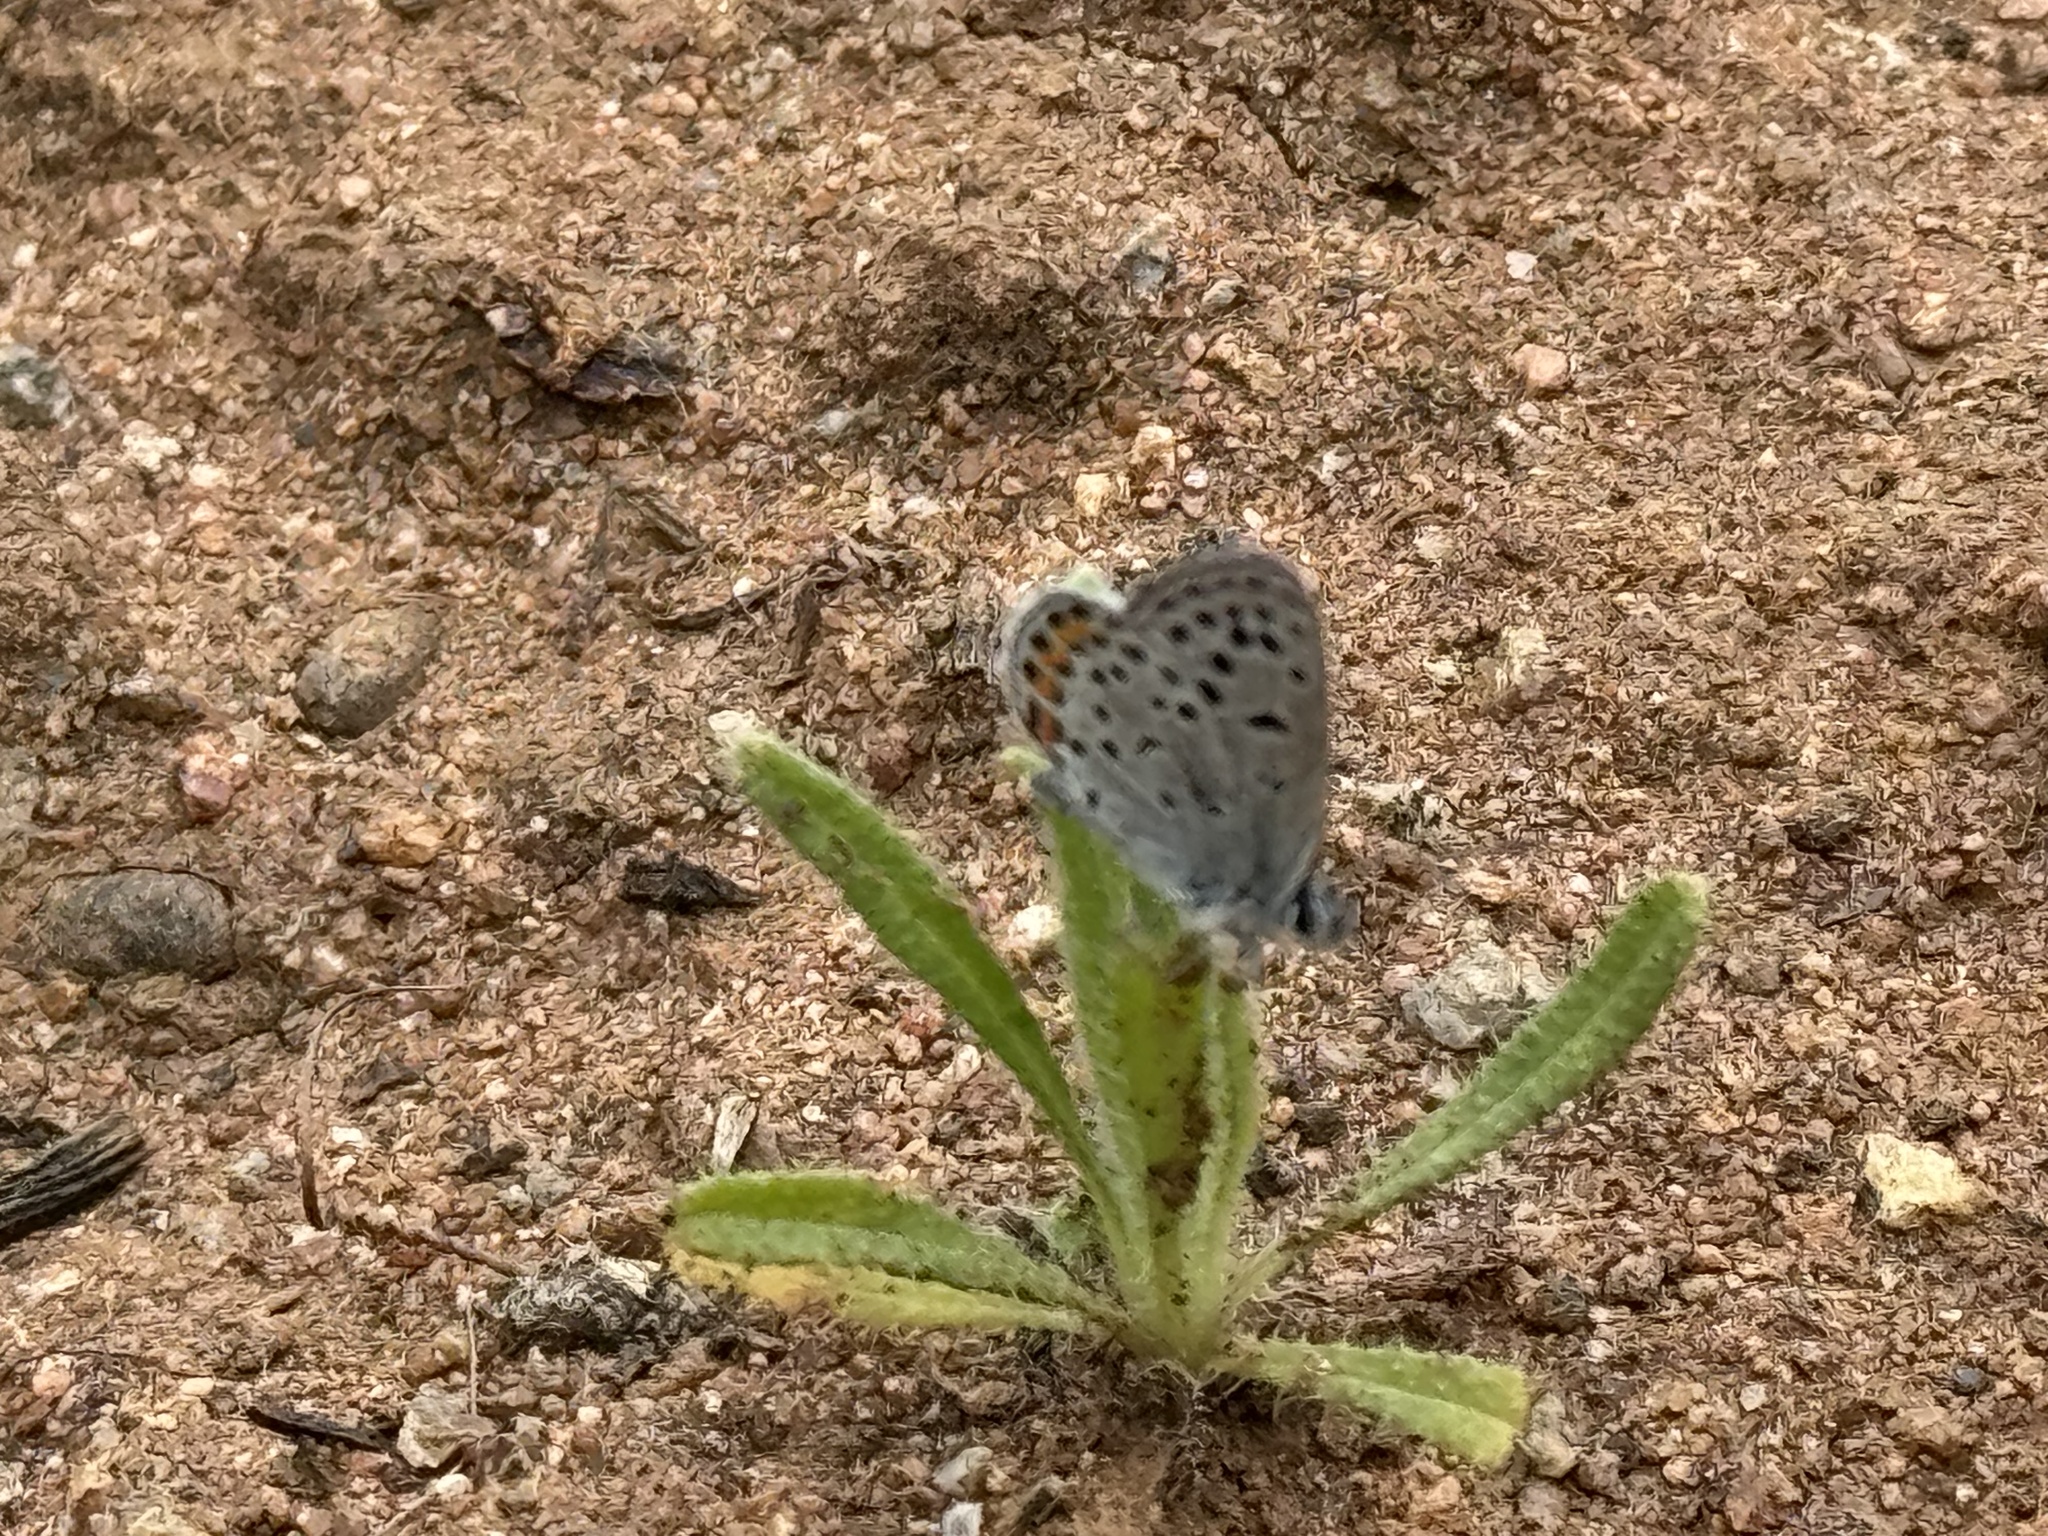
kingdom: Animalia
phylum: Arthropoda
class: Insecta
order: Lepidoptera
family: Lycaenidae
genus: Icaricia
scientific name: Icaricia acmon
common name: Acmon blue
